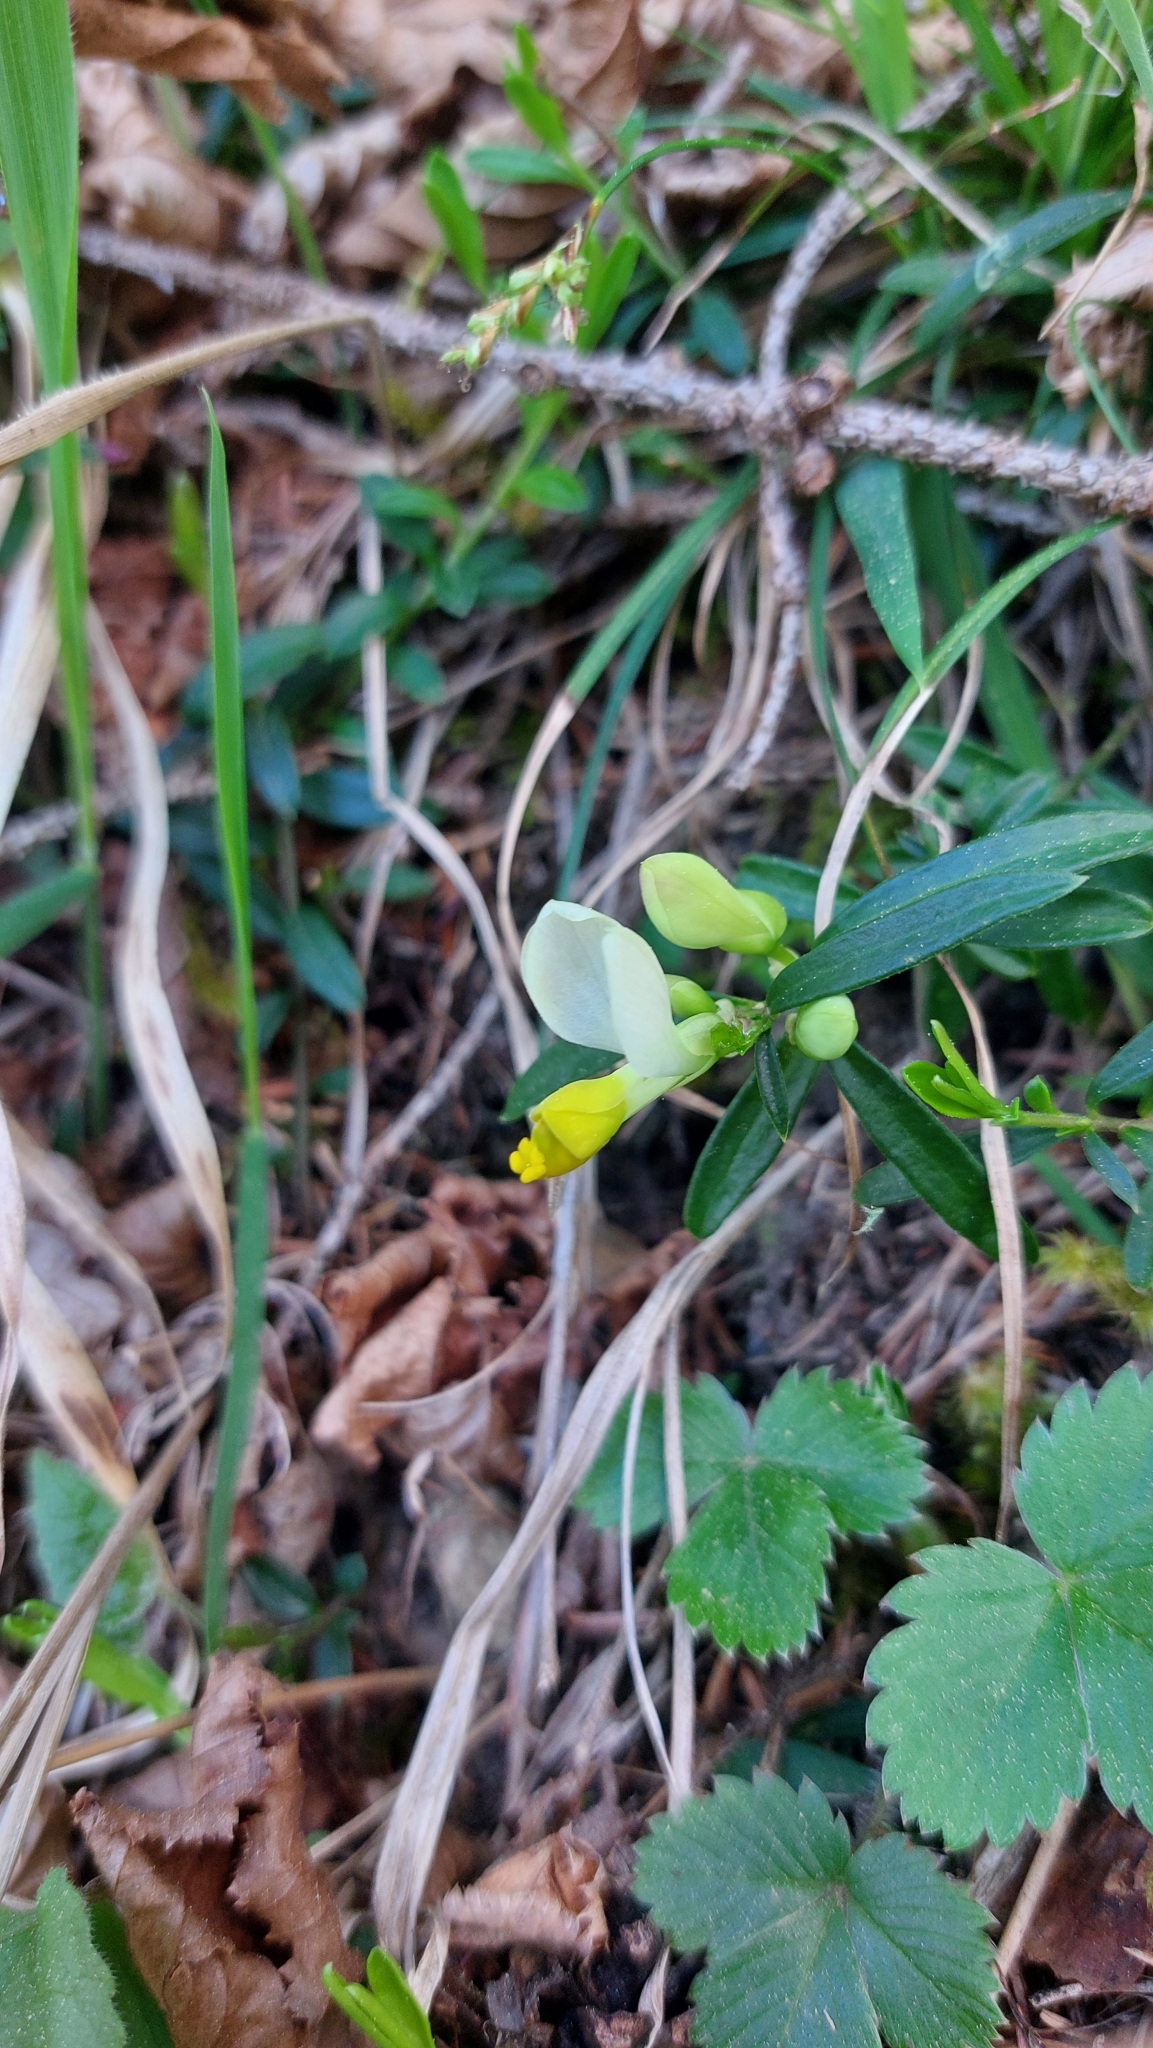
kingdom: Plantae
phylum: Tracheophyta
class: Magnoliopsida
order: Fabales
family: Polygalaceae
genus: Polygaloides
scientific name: Polygaloides chamaebuxus
